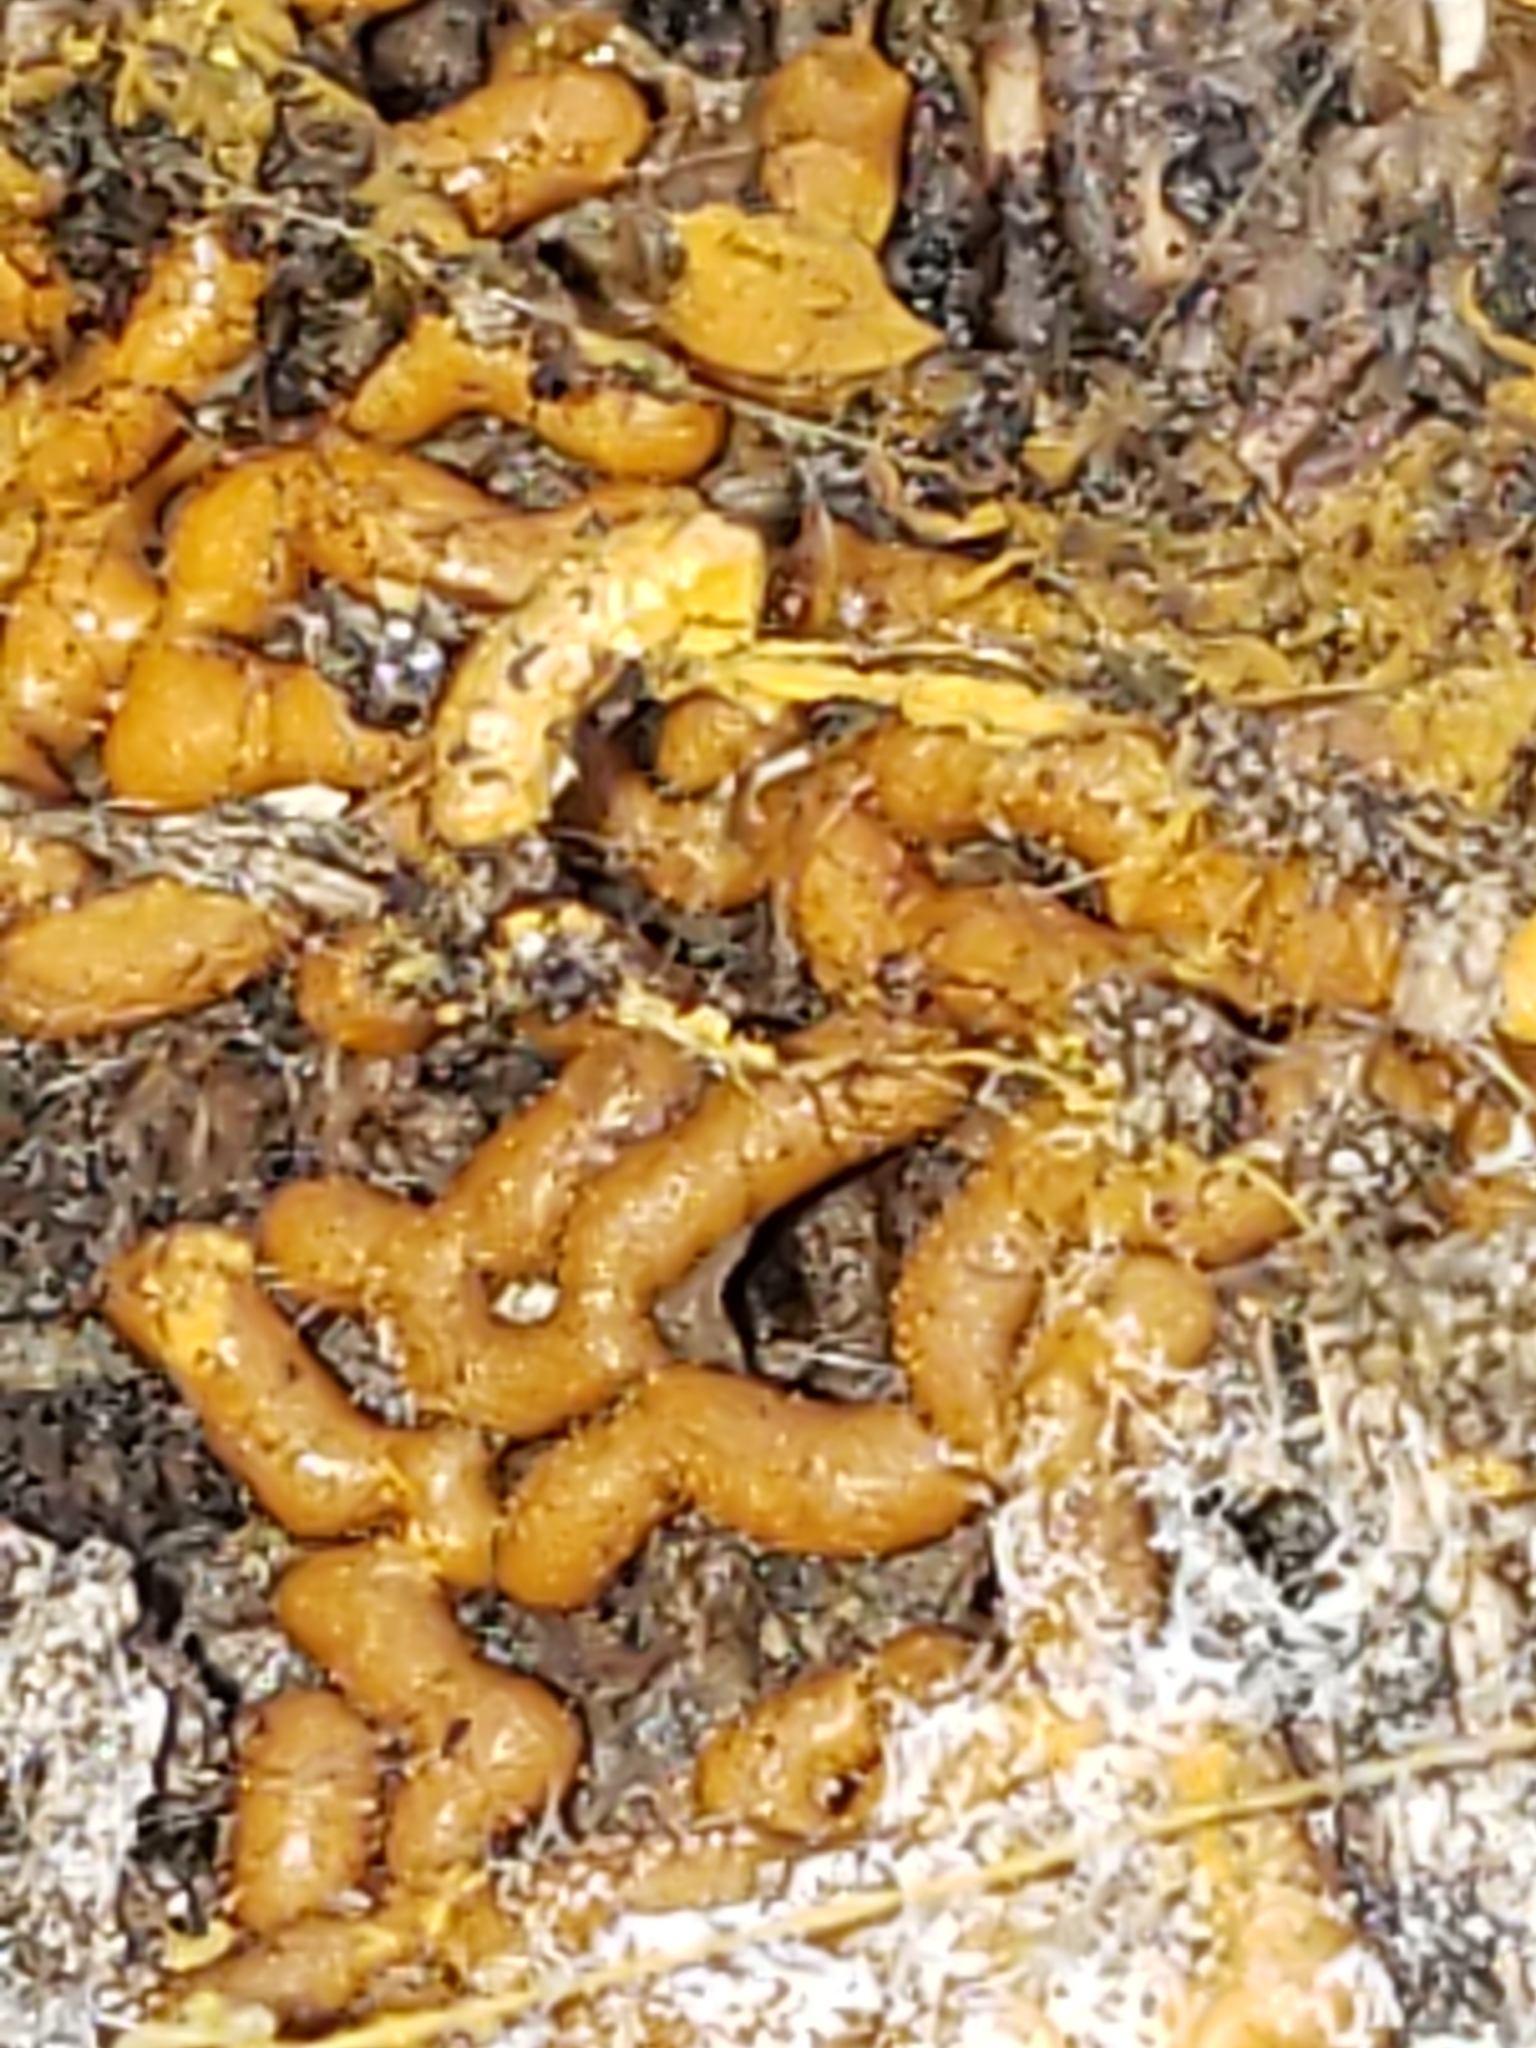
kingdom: Protozoa
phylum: Mycetozoa
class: Myxomycetes
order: Trichiales
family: Arcyriaceae
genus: Hemitrichia
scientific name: Hemitrichia serpula
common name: Pretzel slime mold
